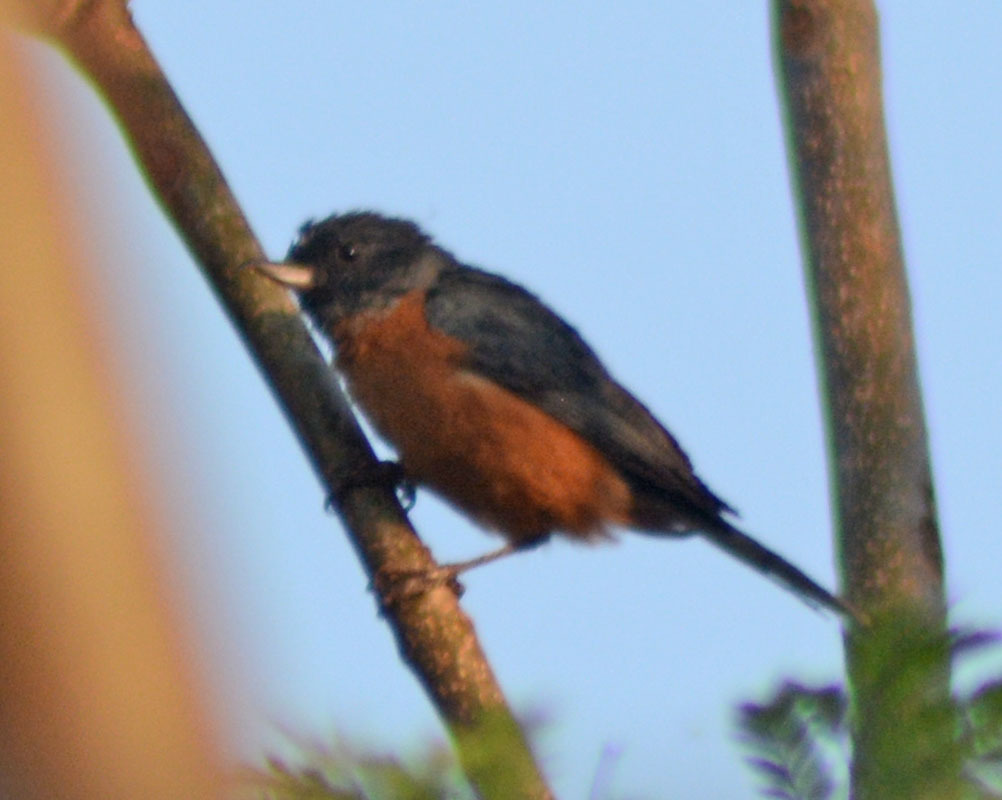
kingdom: Animalia
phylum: Chordata
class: Aves
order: Passeriformes
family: Thraupidae
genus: Diglossa
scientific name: Diglossa baritula
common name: Cinnamon-bellied flowerpiercer
